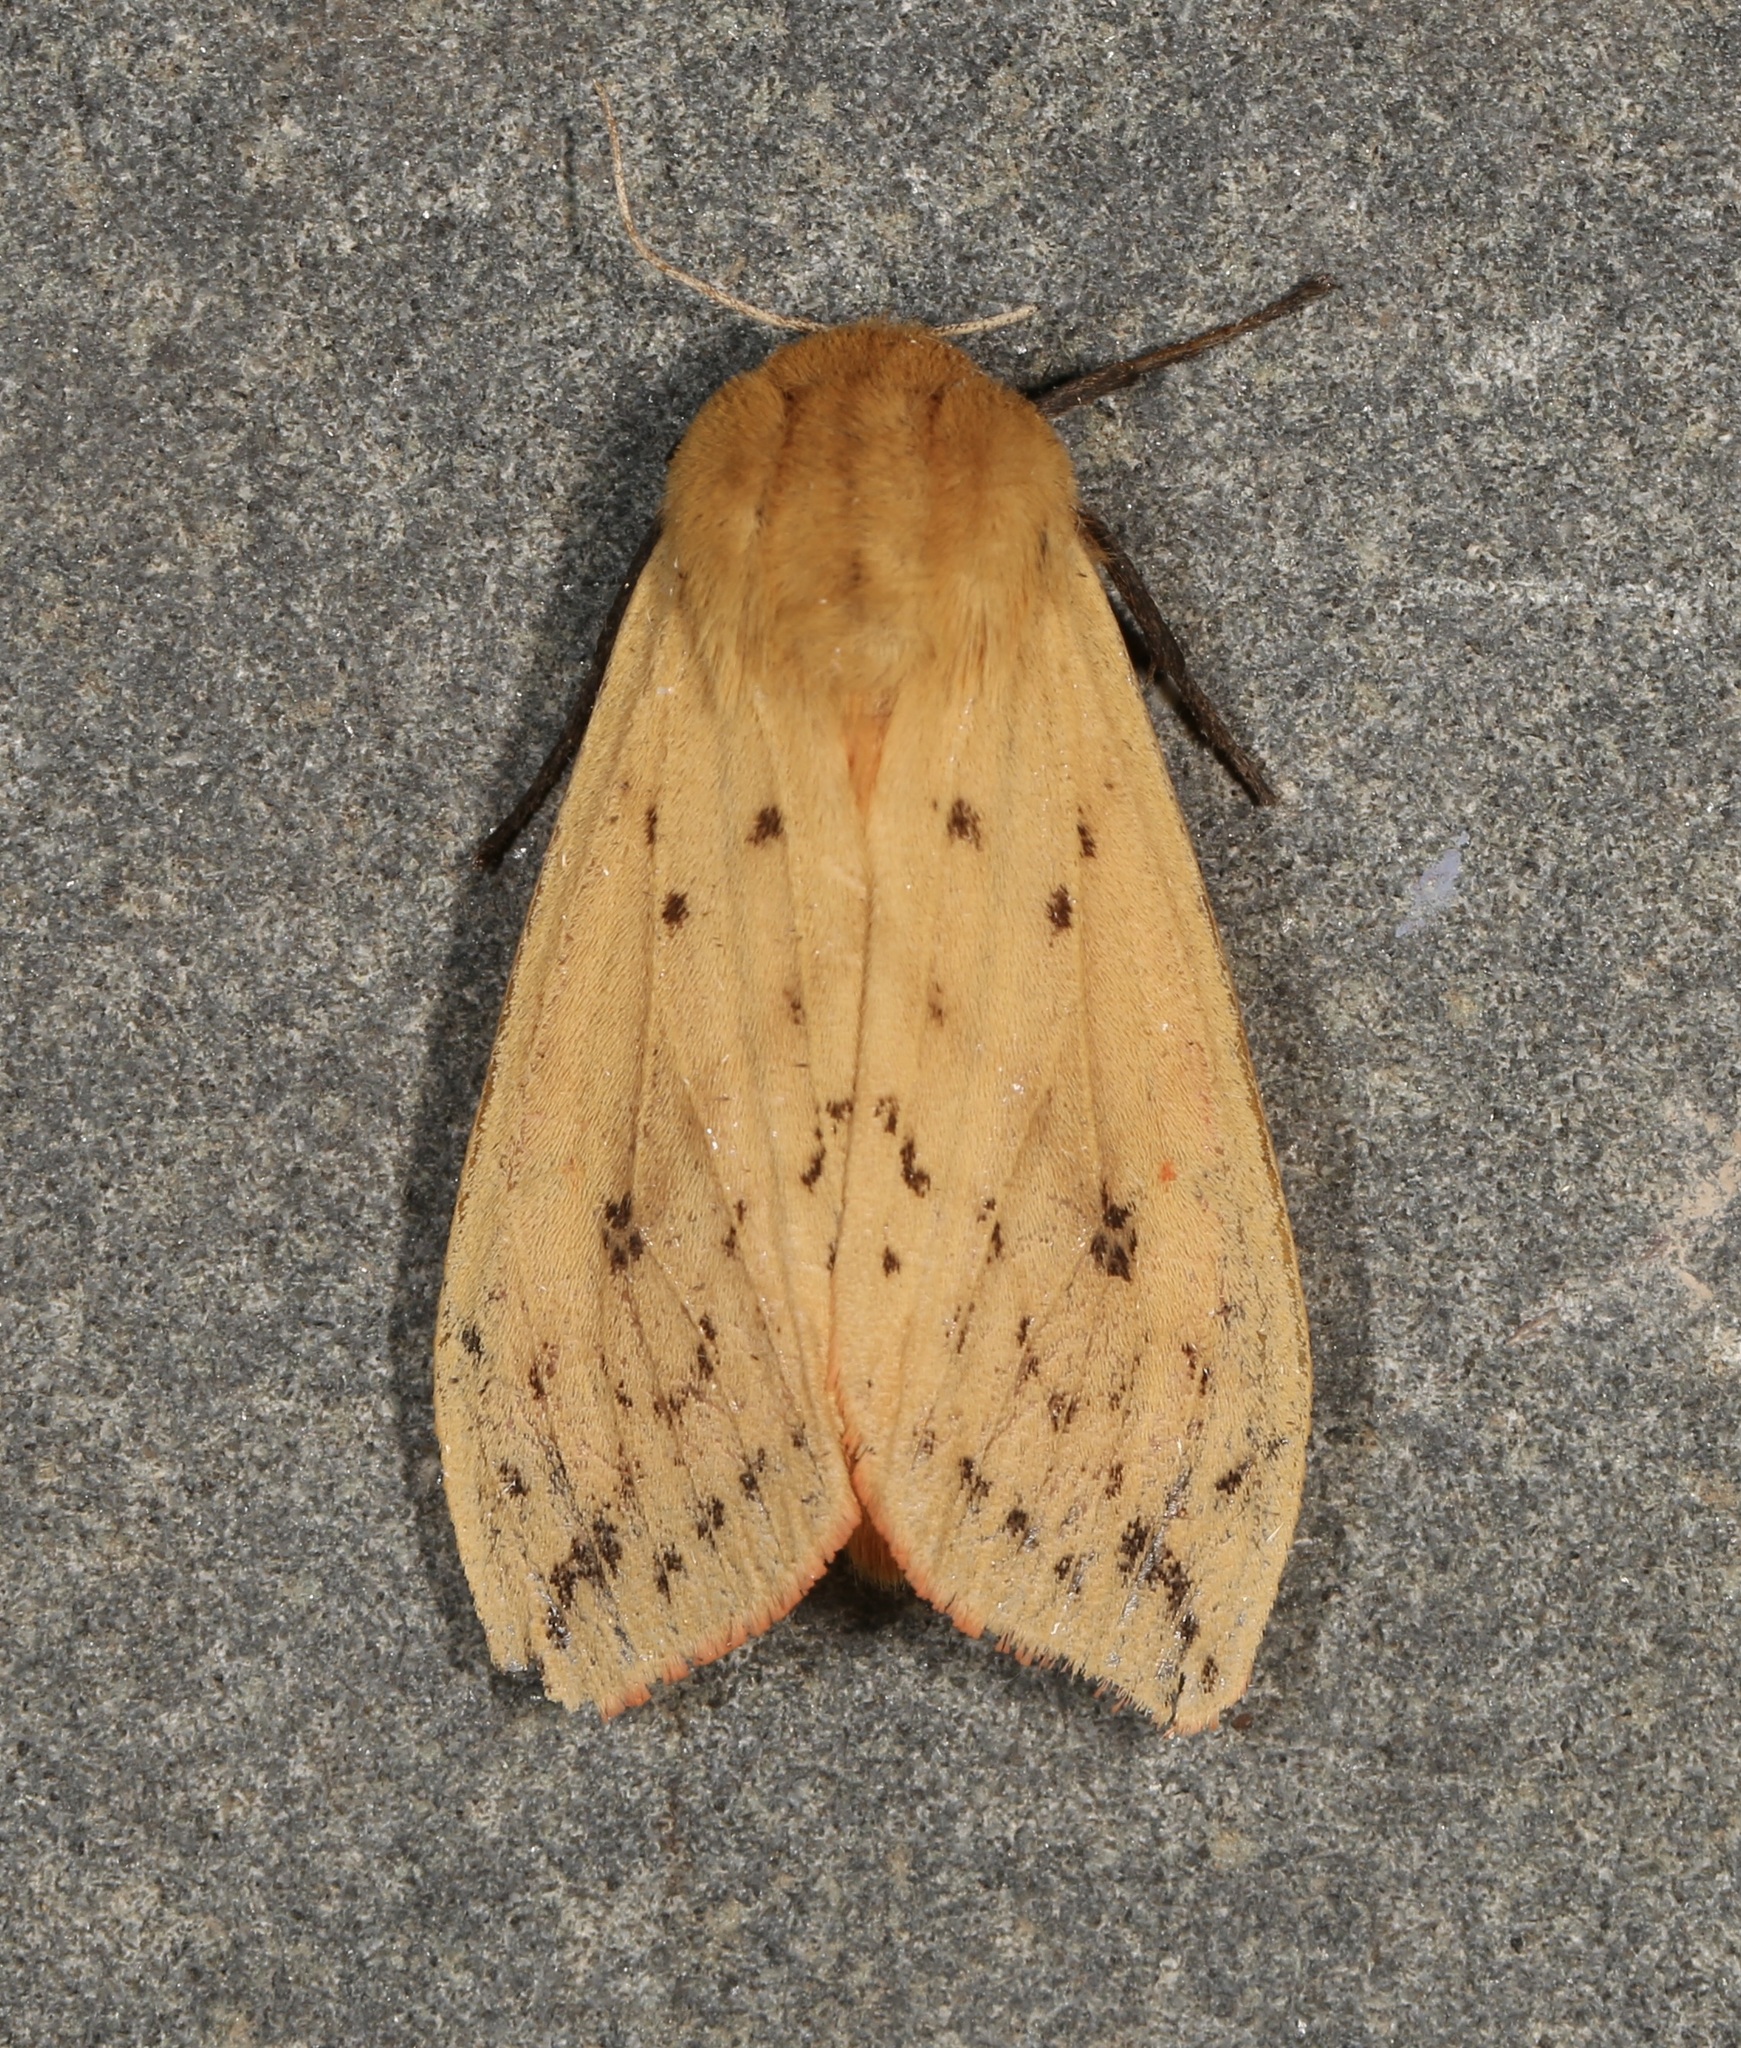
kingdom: Animalia
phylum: Arthropoda
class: Insecta
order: Lepidoptera
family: Erebidae
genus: Pyrrharctia
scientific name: Pyrrharctia isabella
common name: Isabella tiger moth
